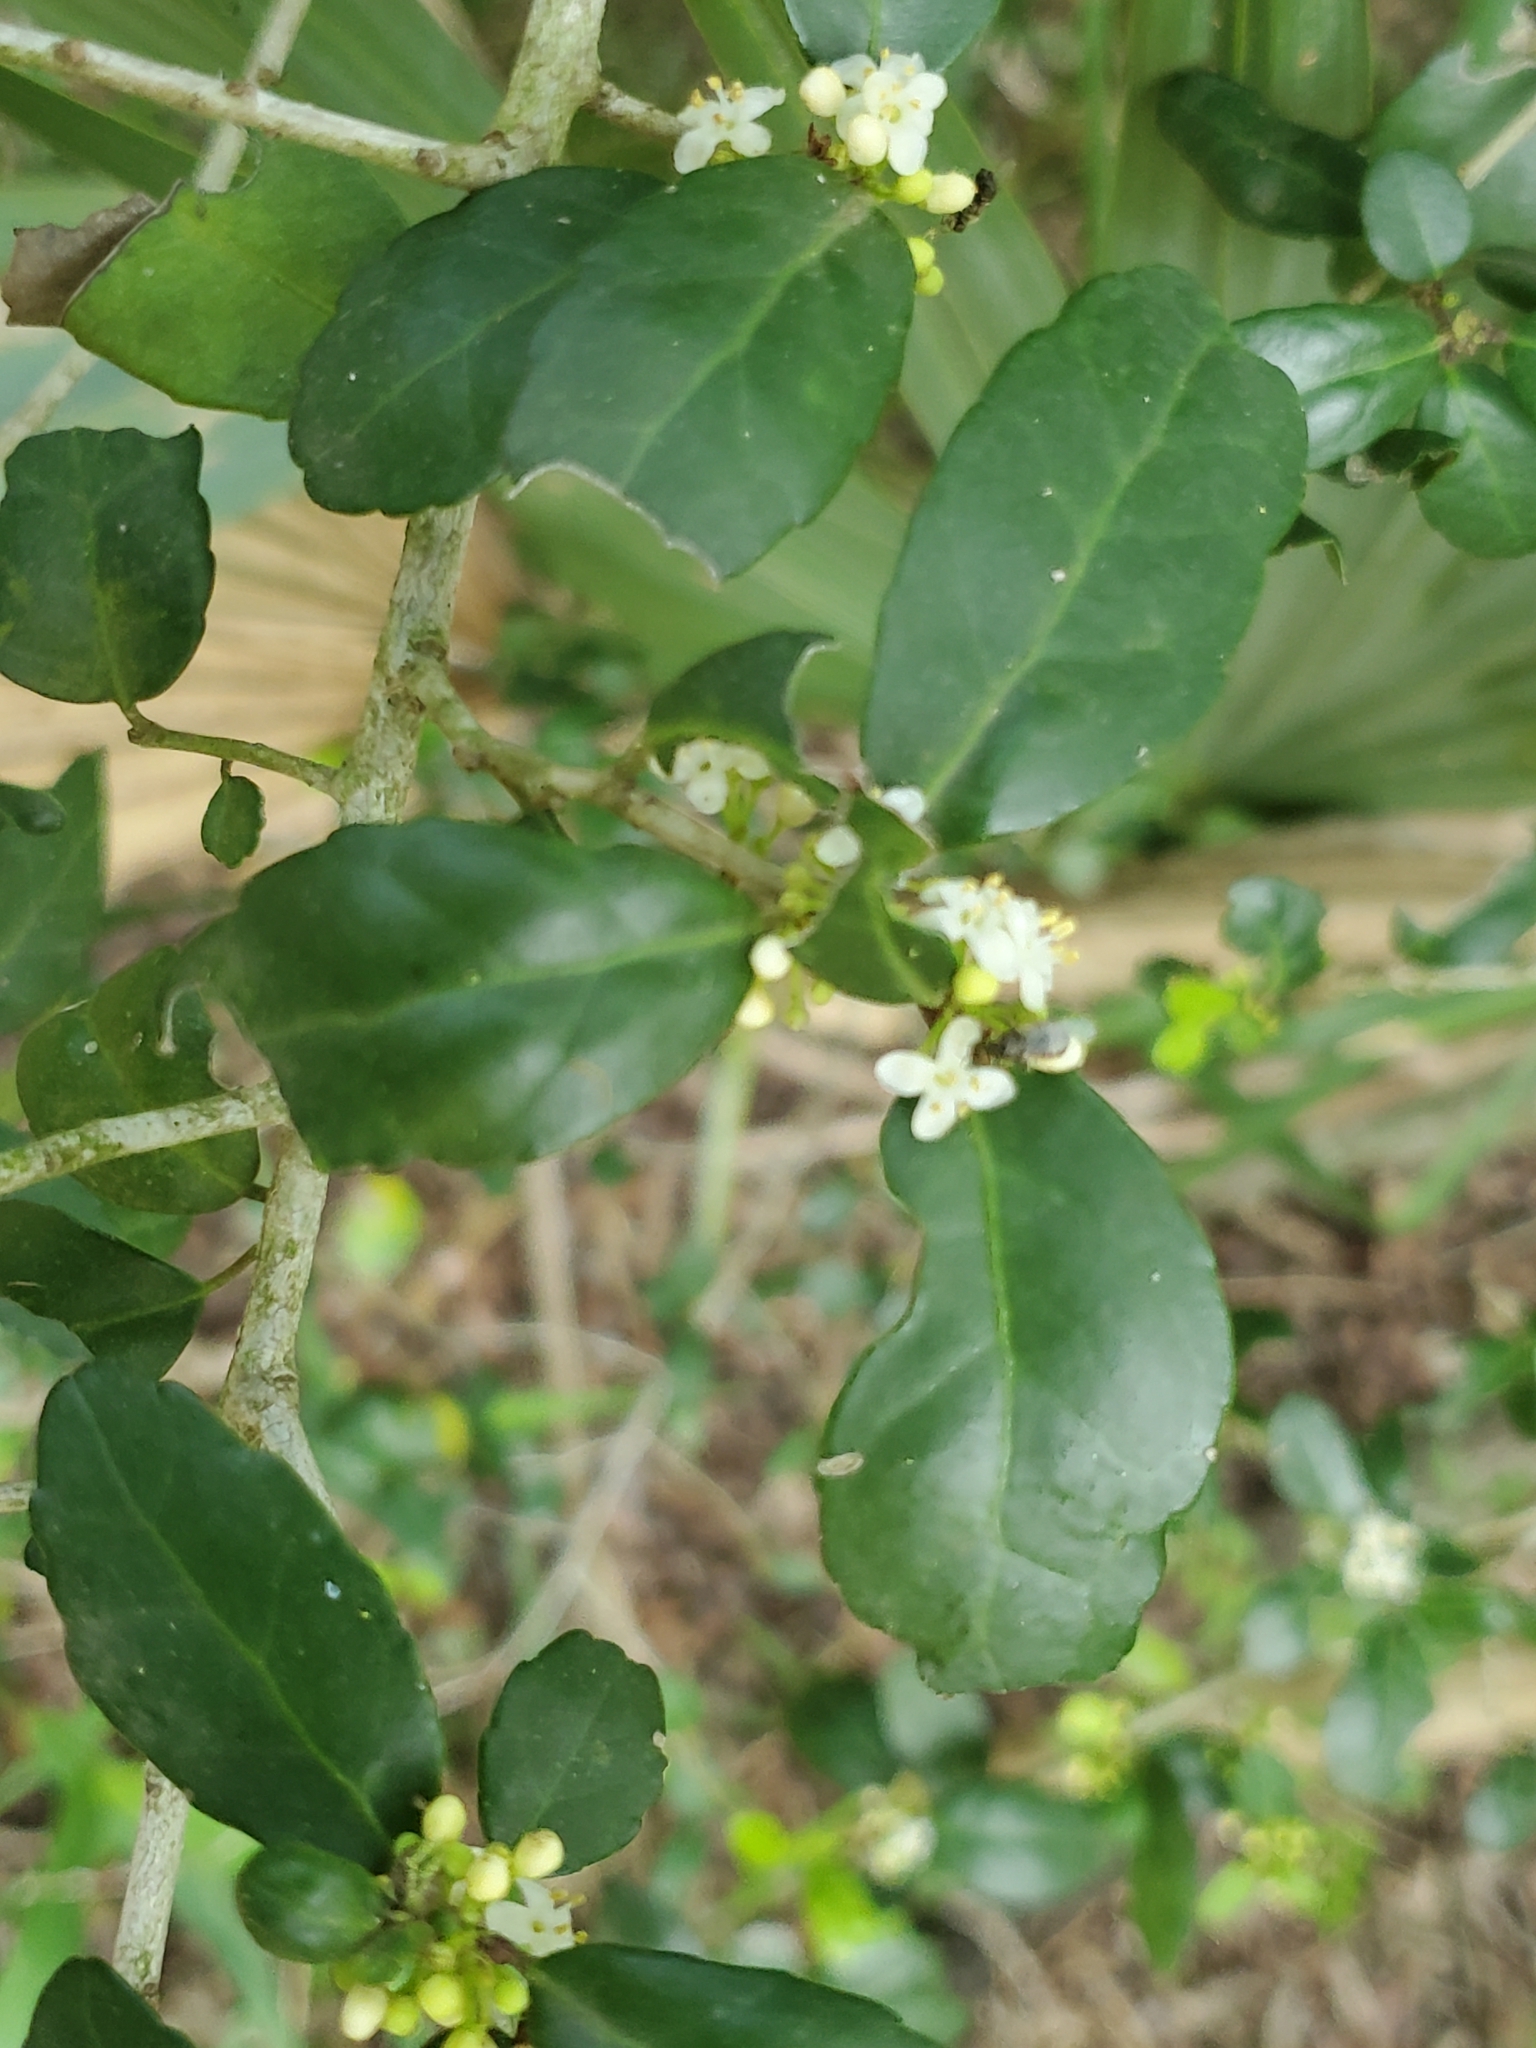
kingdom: Plantae
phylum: Tracheophyta
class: Magnoliopsida
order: Aquifoliales
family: Aquifoliaceae
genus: Ilex
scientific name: Ilex vomitoria
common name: Yaupon holly
